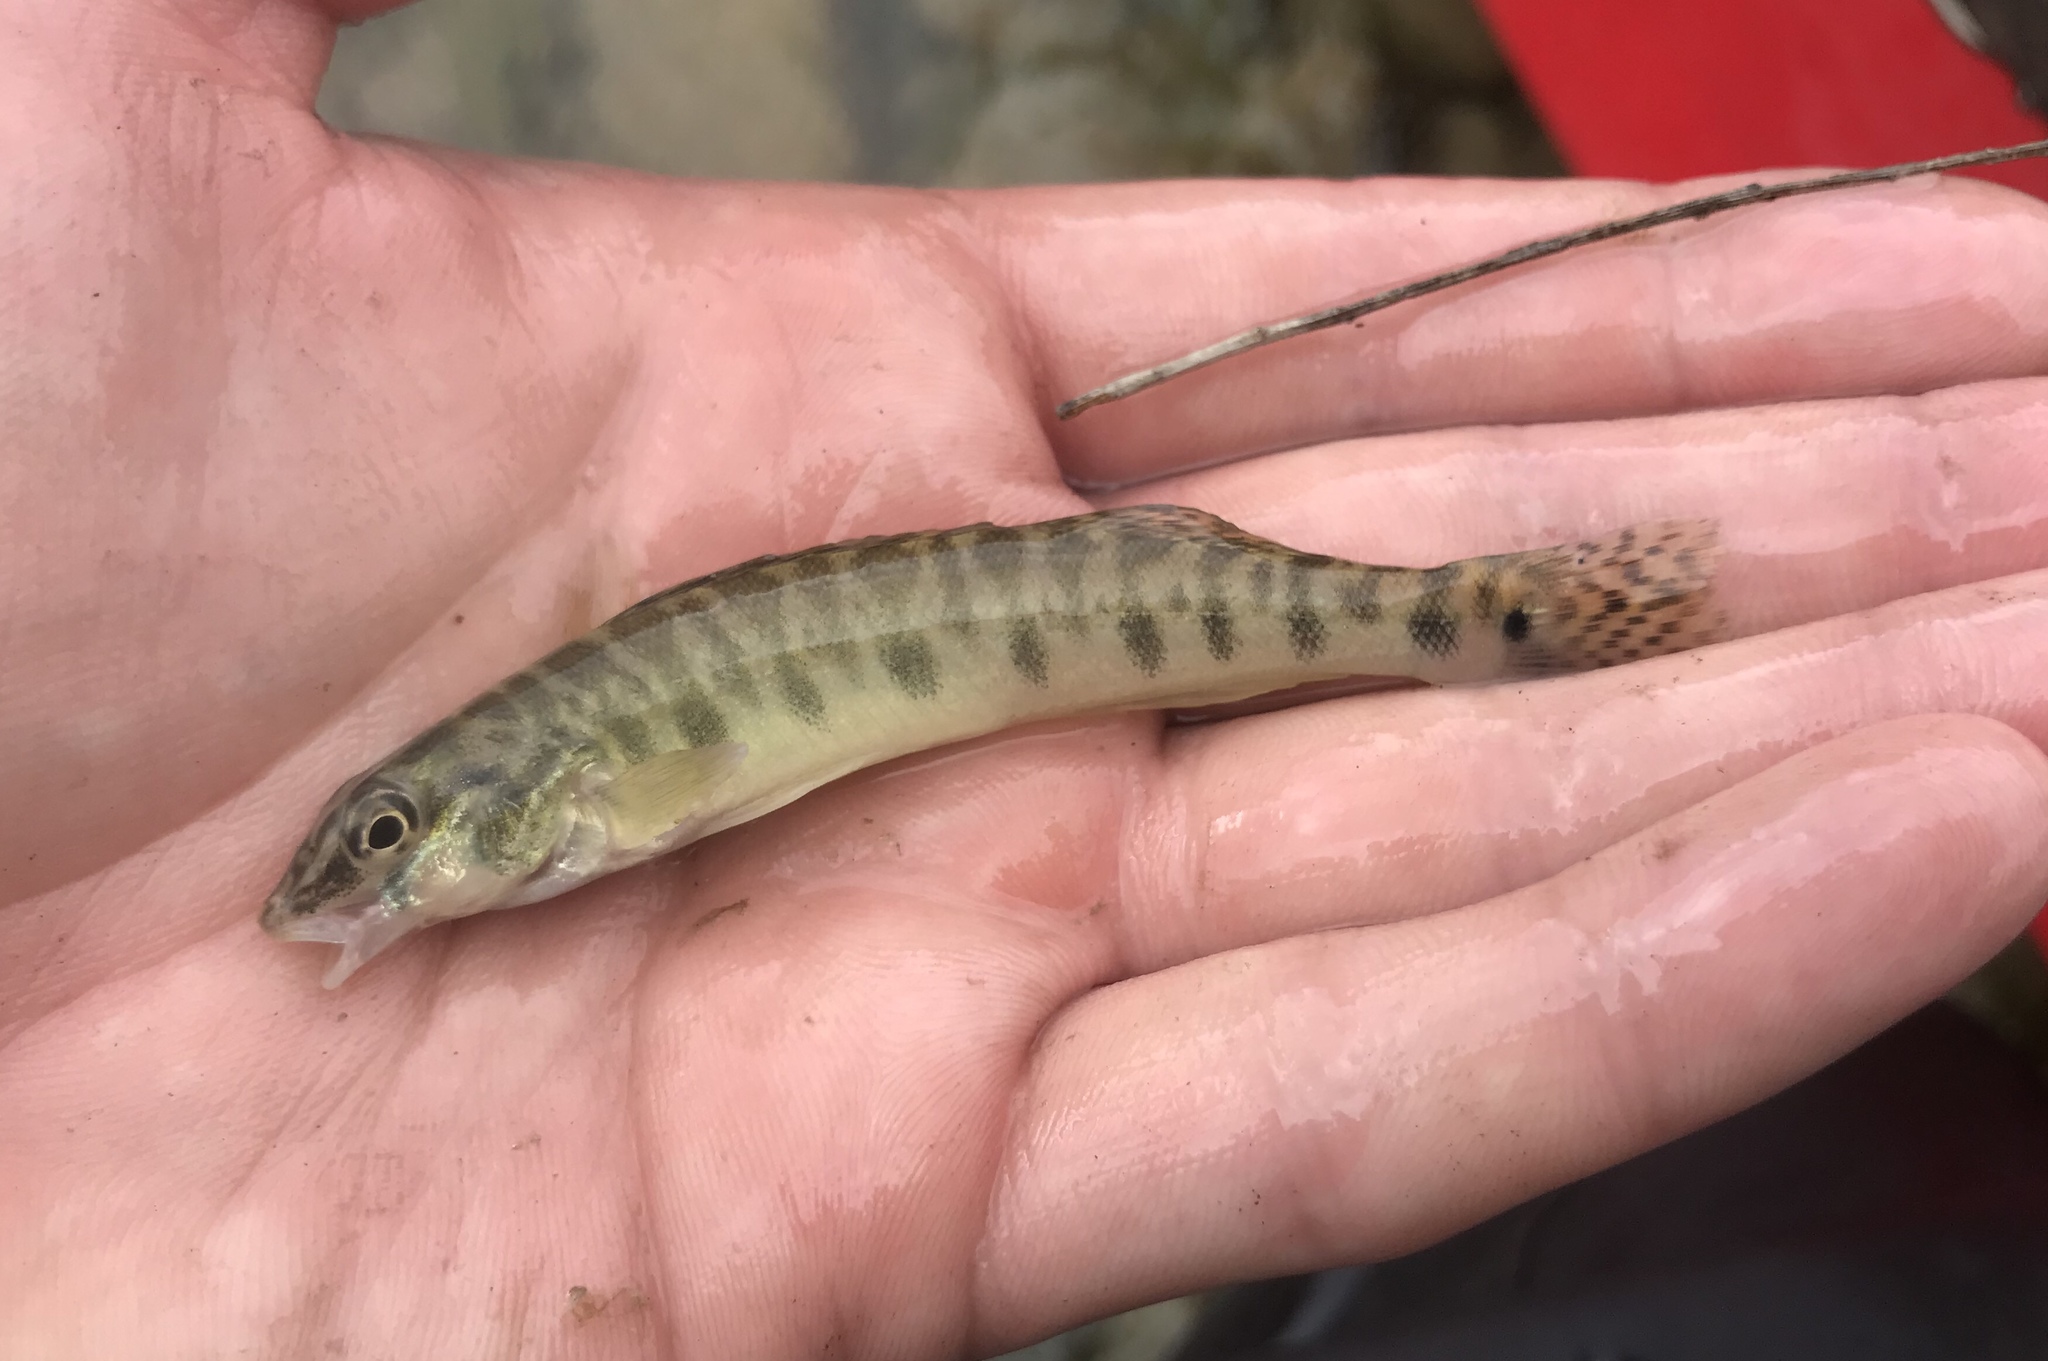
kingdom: Animalia
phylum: Chordata
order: Perciformes
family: Percidae
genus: Percina
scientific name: Percina carbonaria
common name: Texas logperch
